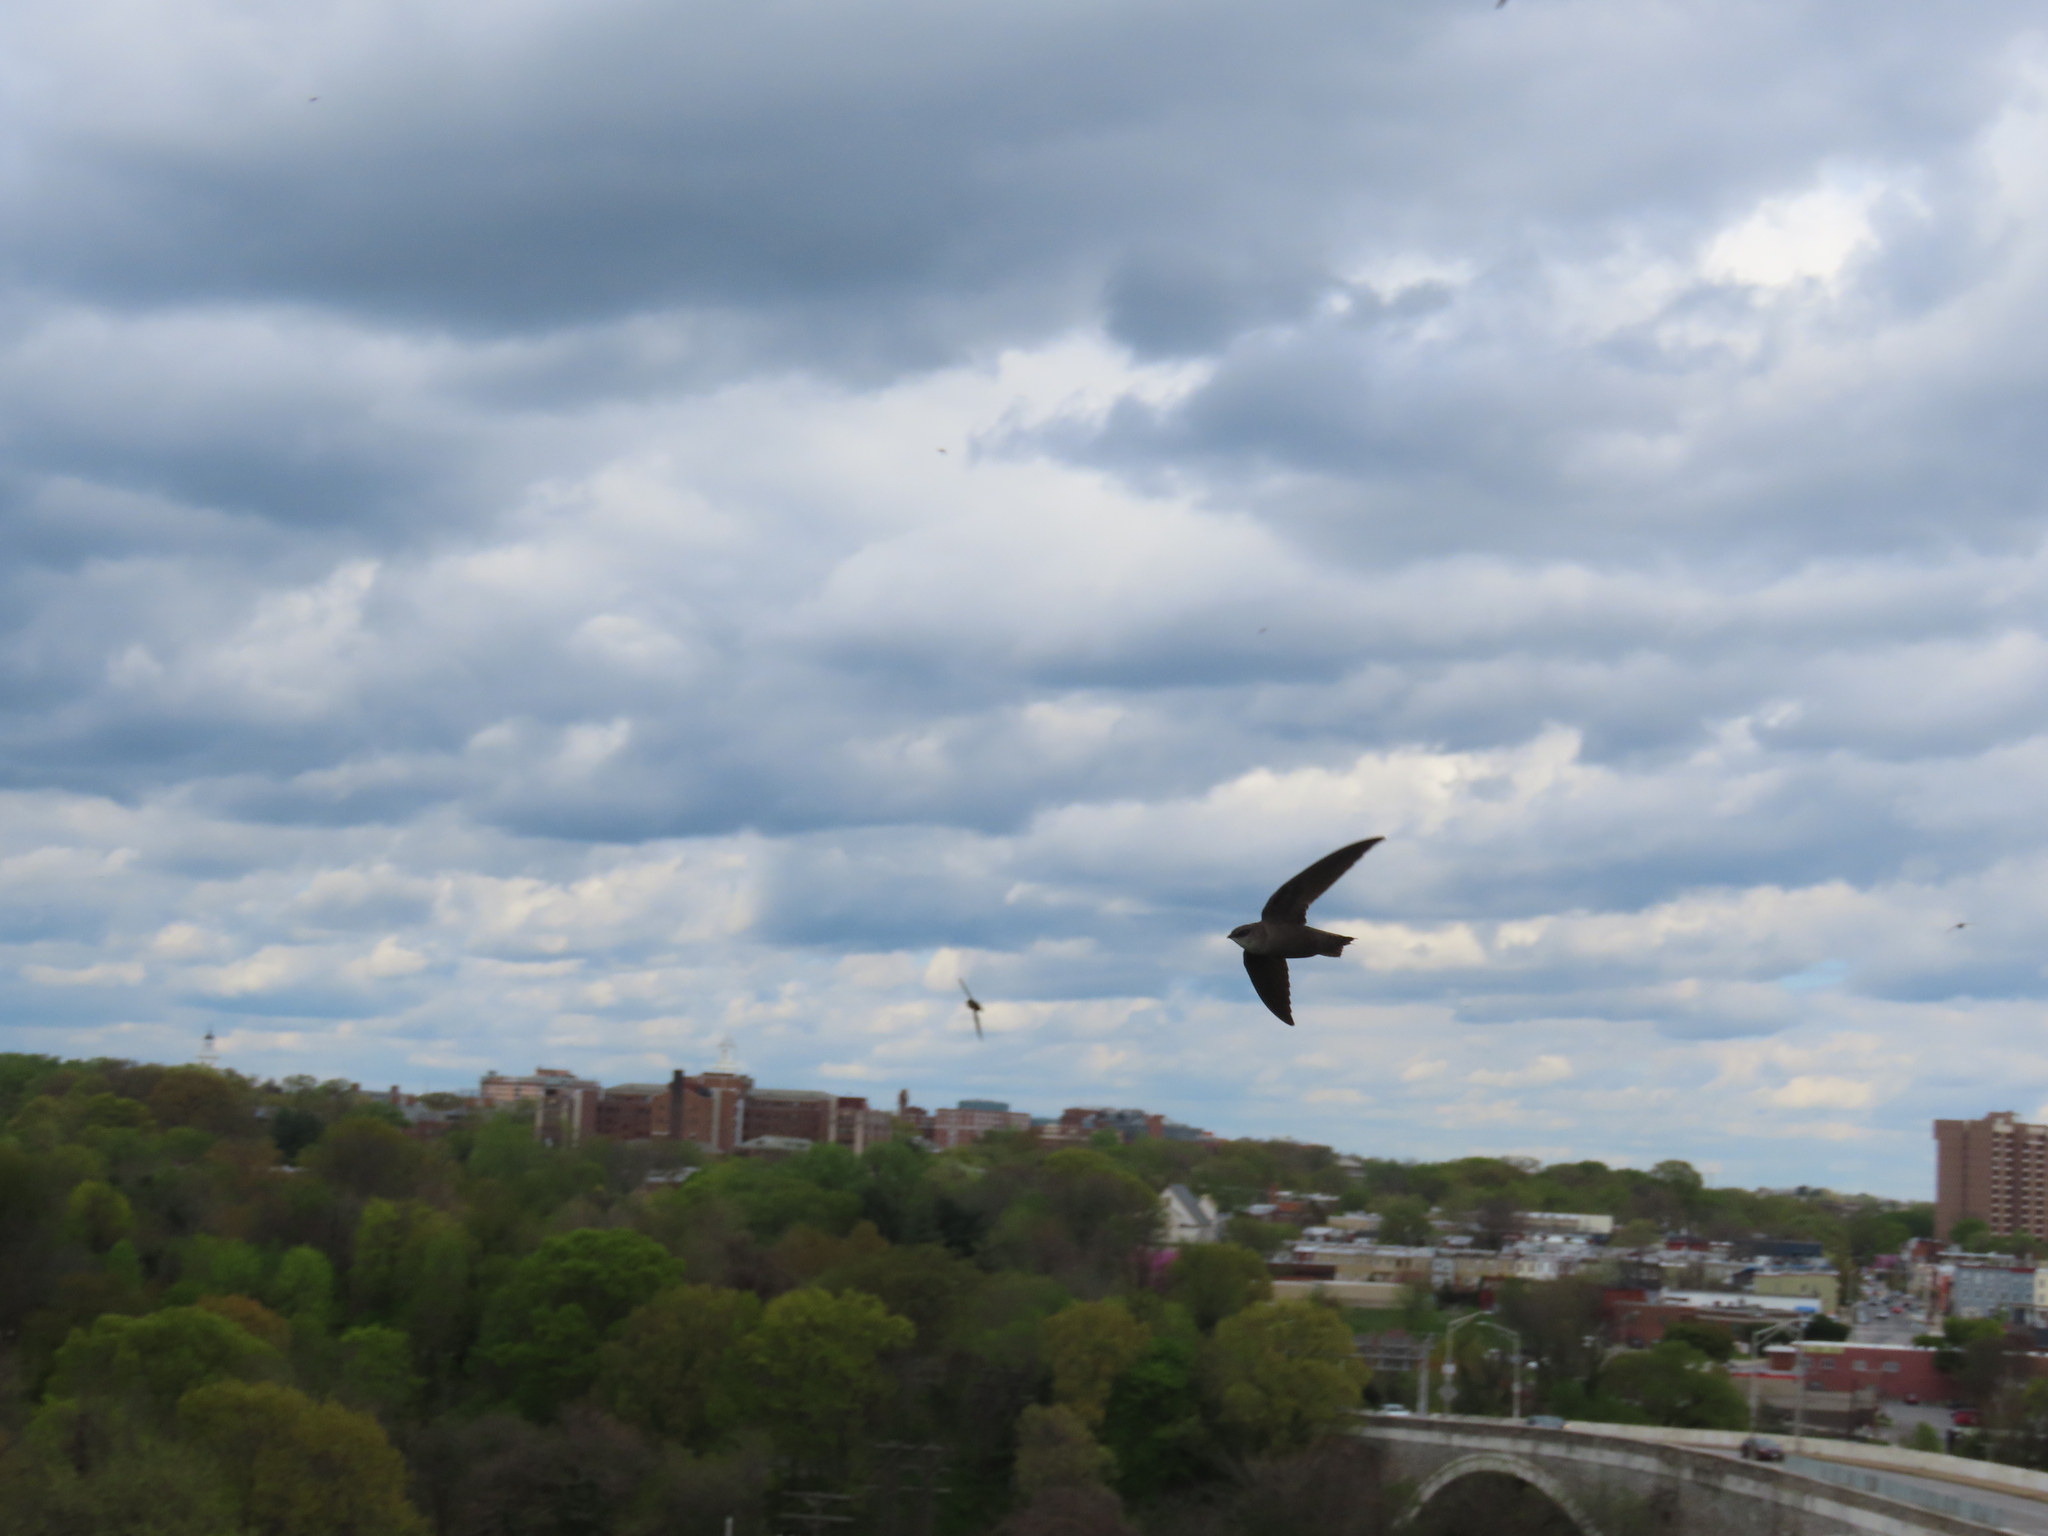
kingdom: Animalia
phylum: Chordata
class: Aves
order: Apodiformes
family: Apodidae
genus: Chaetura
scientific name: Chaetura pelagica
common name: Chimney swift
